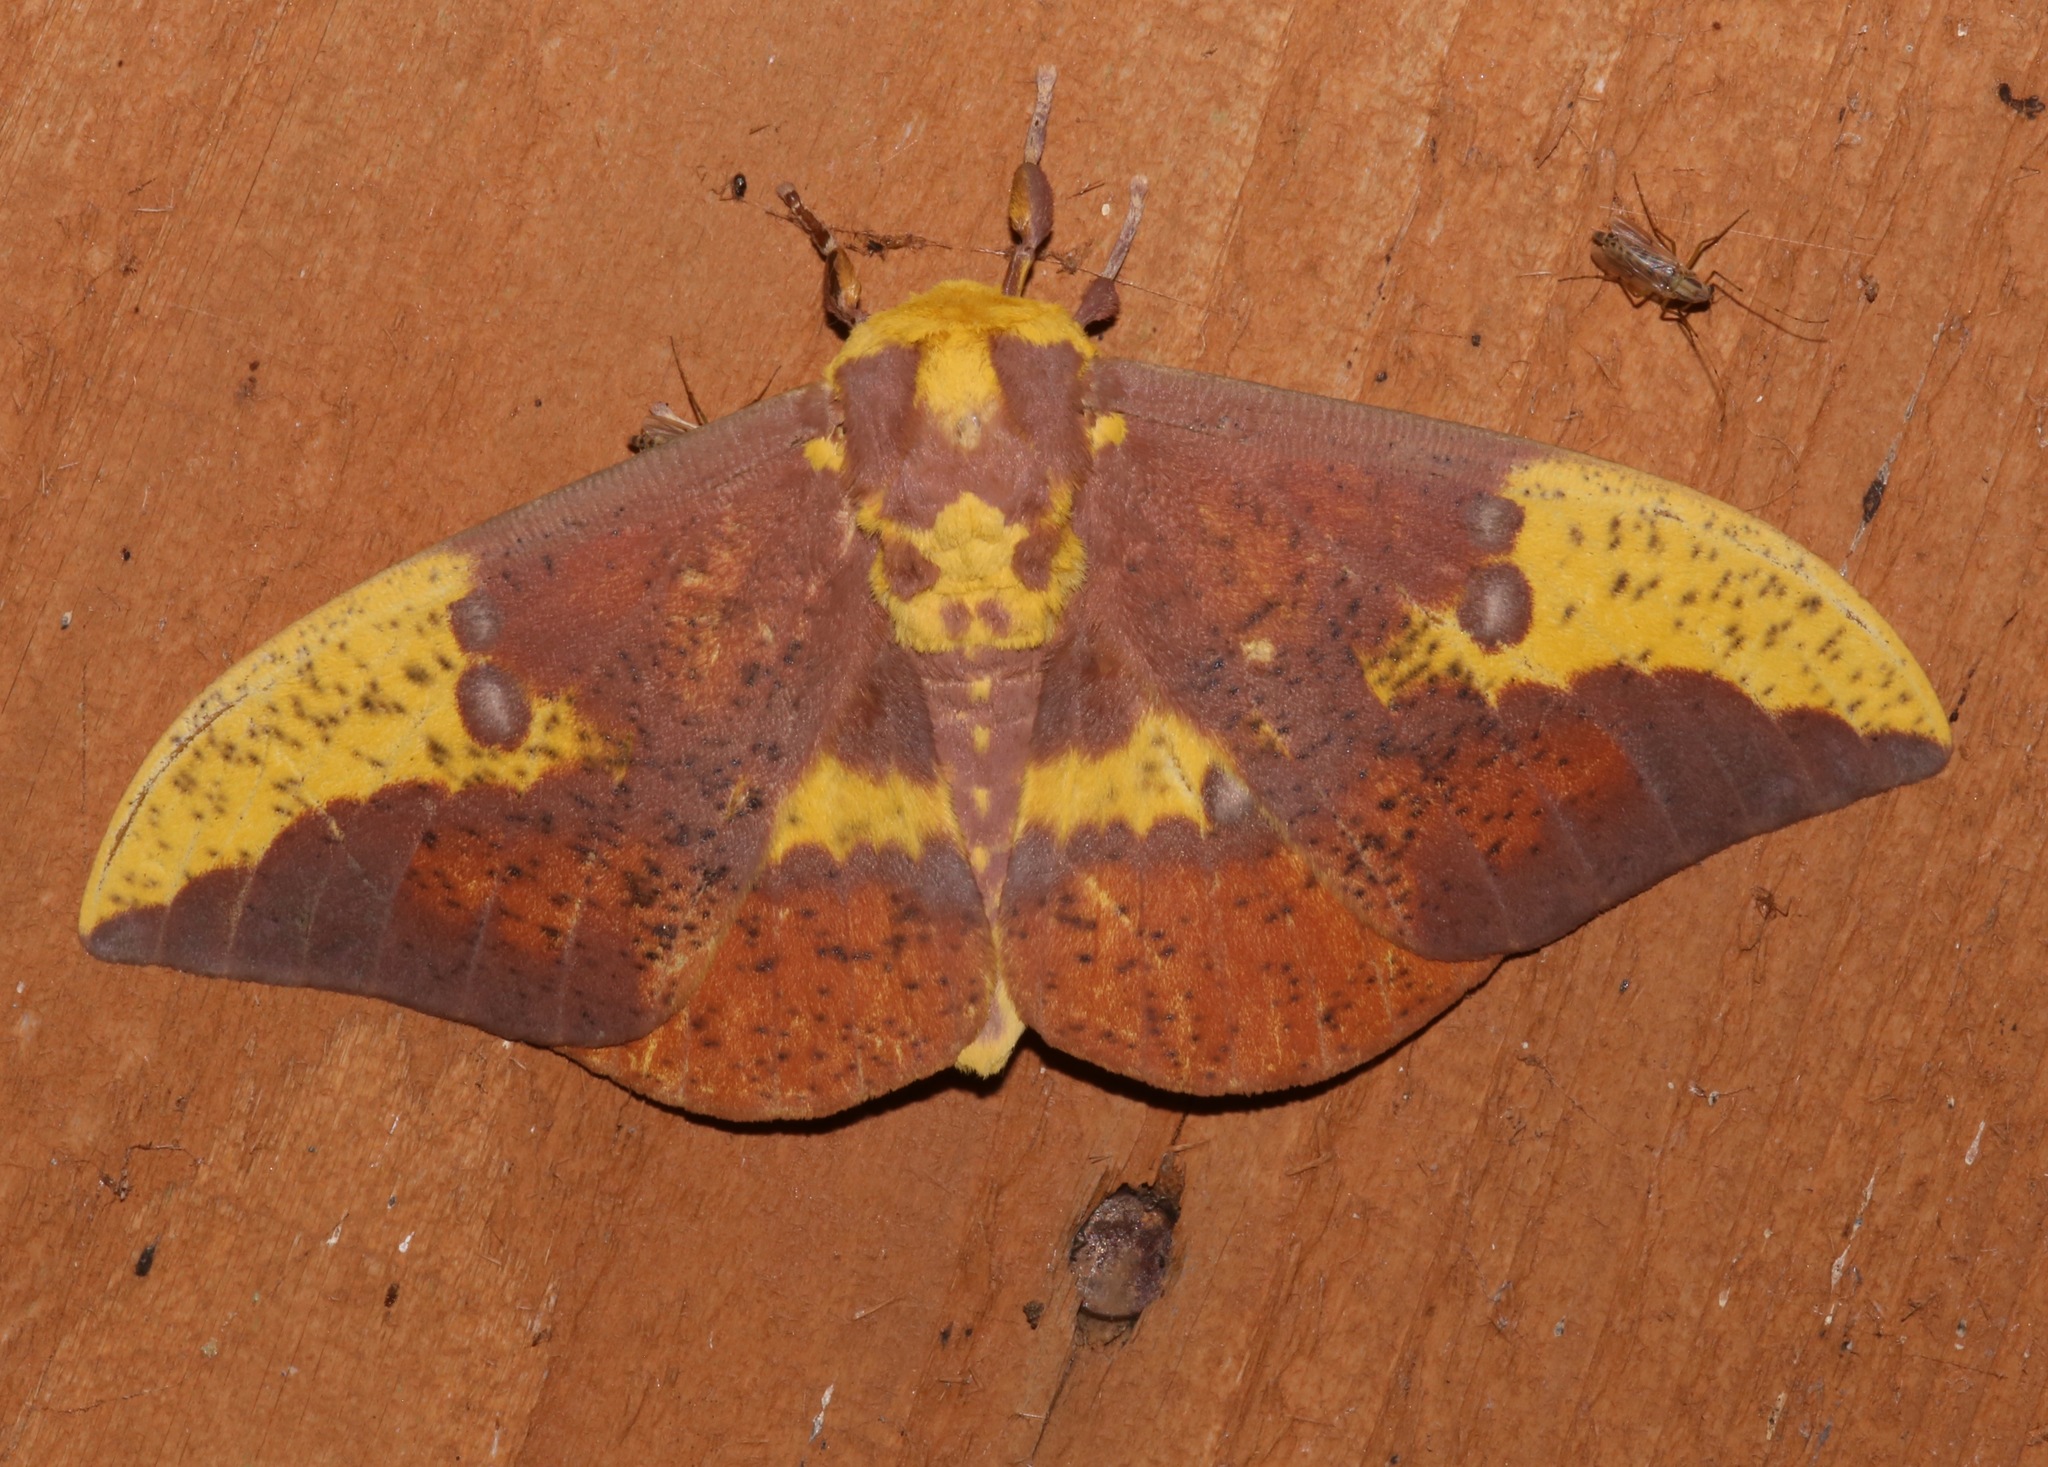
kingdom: Animalia
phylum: Arthropoda
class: Insecta
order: Lepidoptera
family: Saturniidae
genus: Eacles
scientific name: Eacles imperialis
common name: Imperial moth
